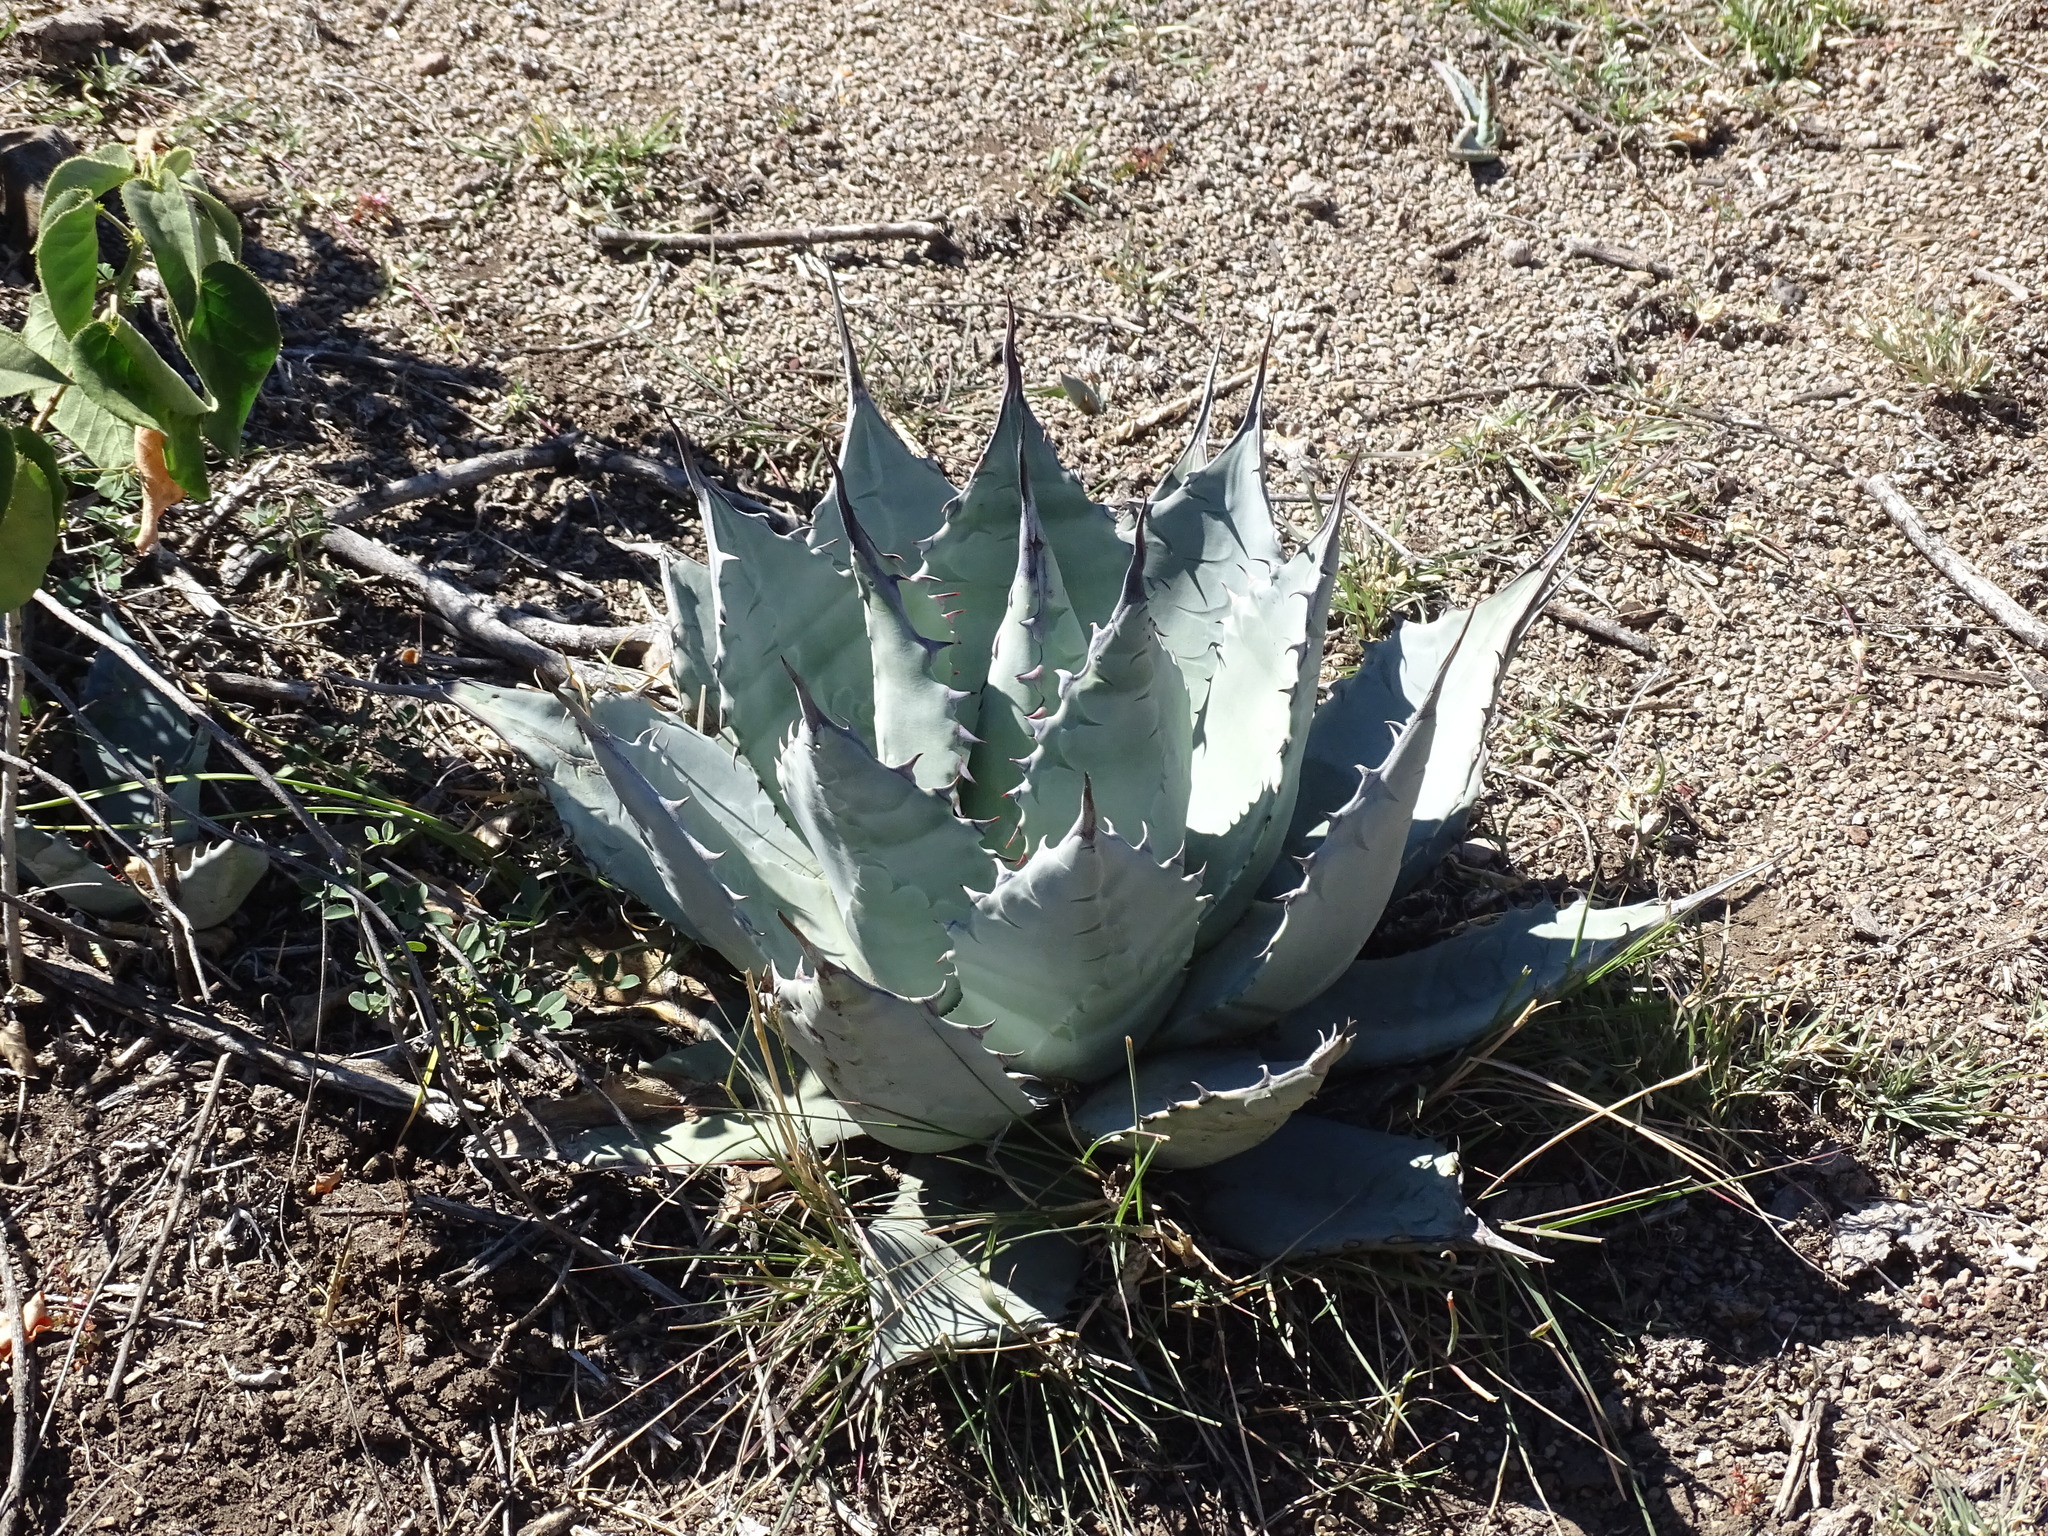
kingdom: Plantae
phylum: Tracheophyta
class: Liliopsida
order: Asparagales
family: Asparagaceae
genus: Agave
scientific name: Agave applanata
